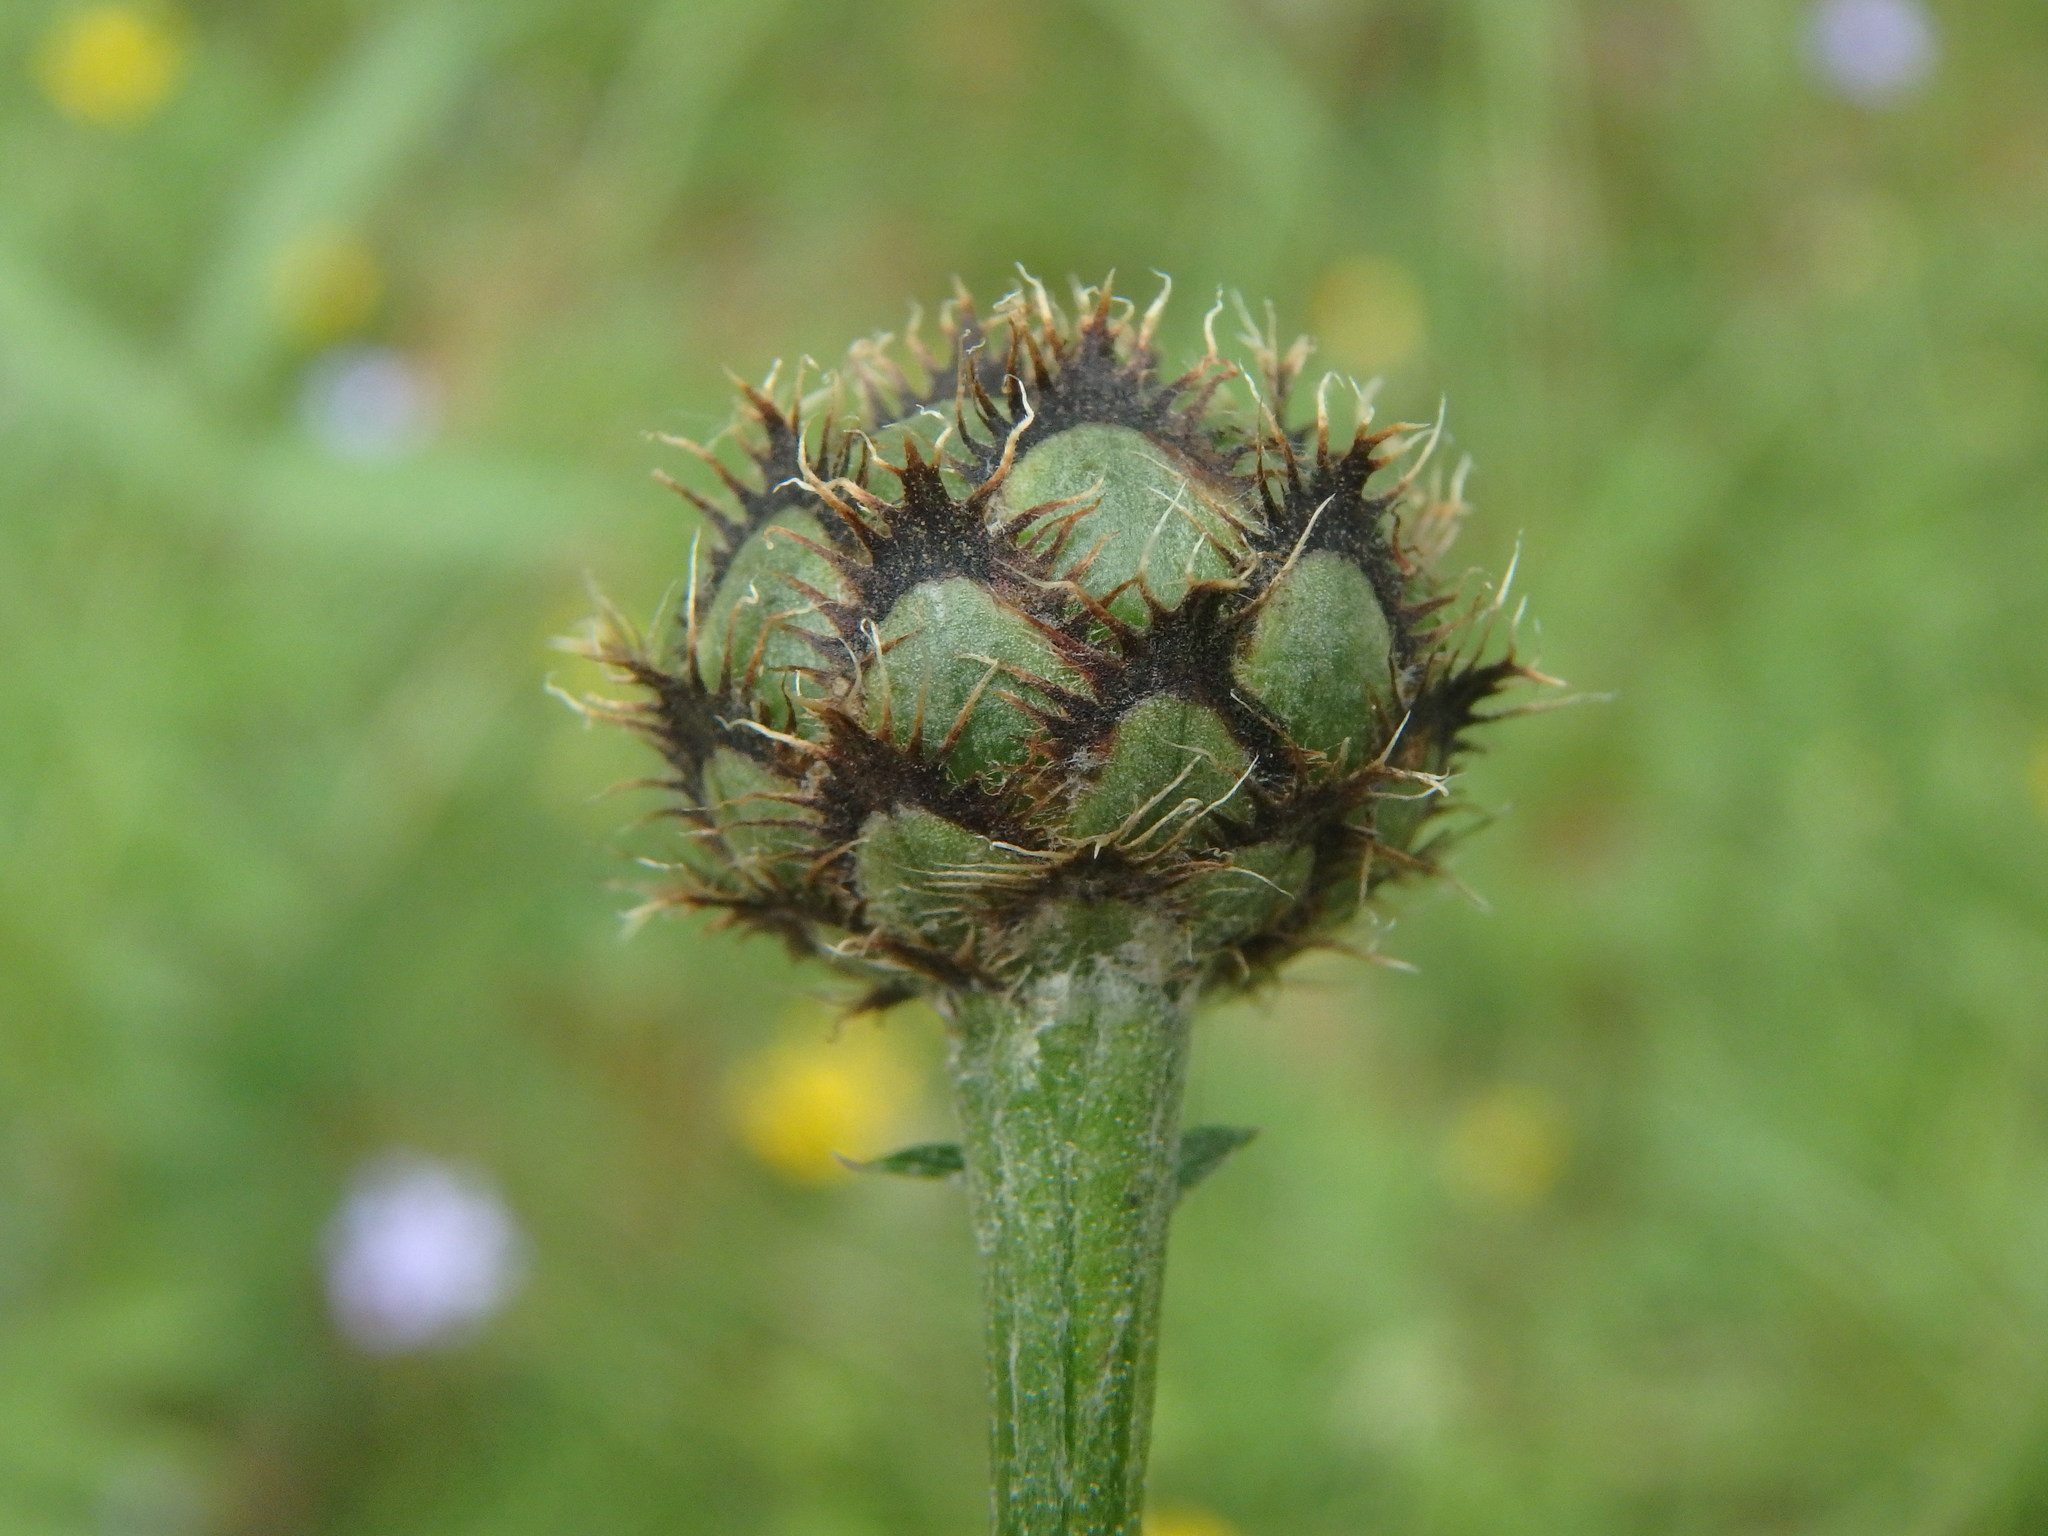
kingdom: Plantae
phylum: Tracheophyta
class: Magnoliopsida
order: Asterales
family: Asteraceae
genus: Centaurea
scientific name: Centaurea scabiosa
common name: Greater knapweed
